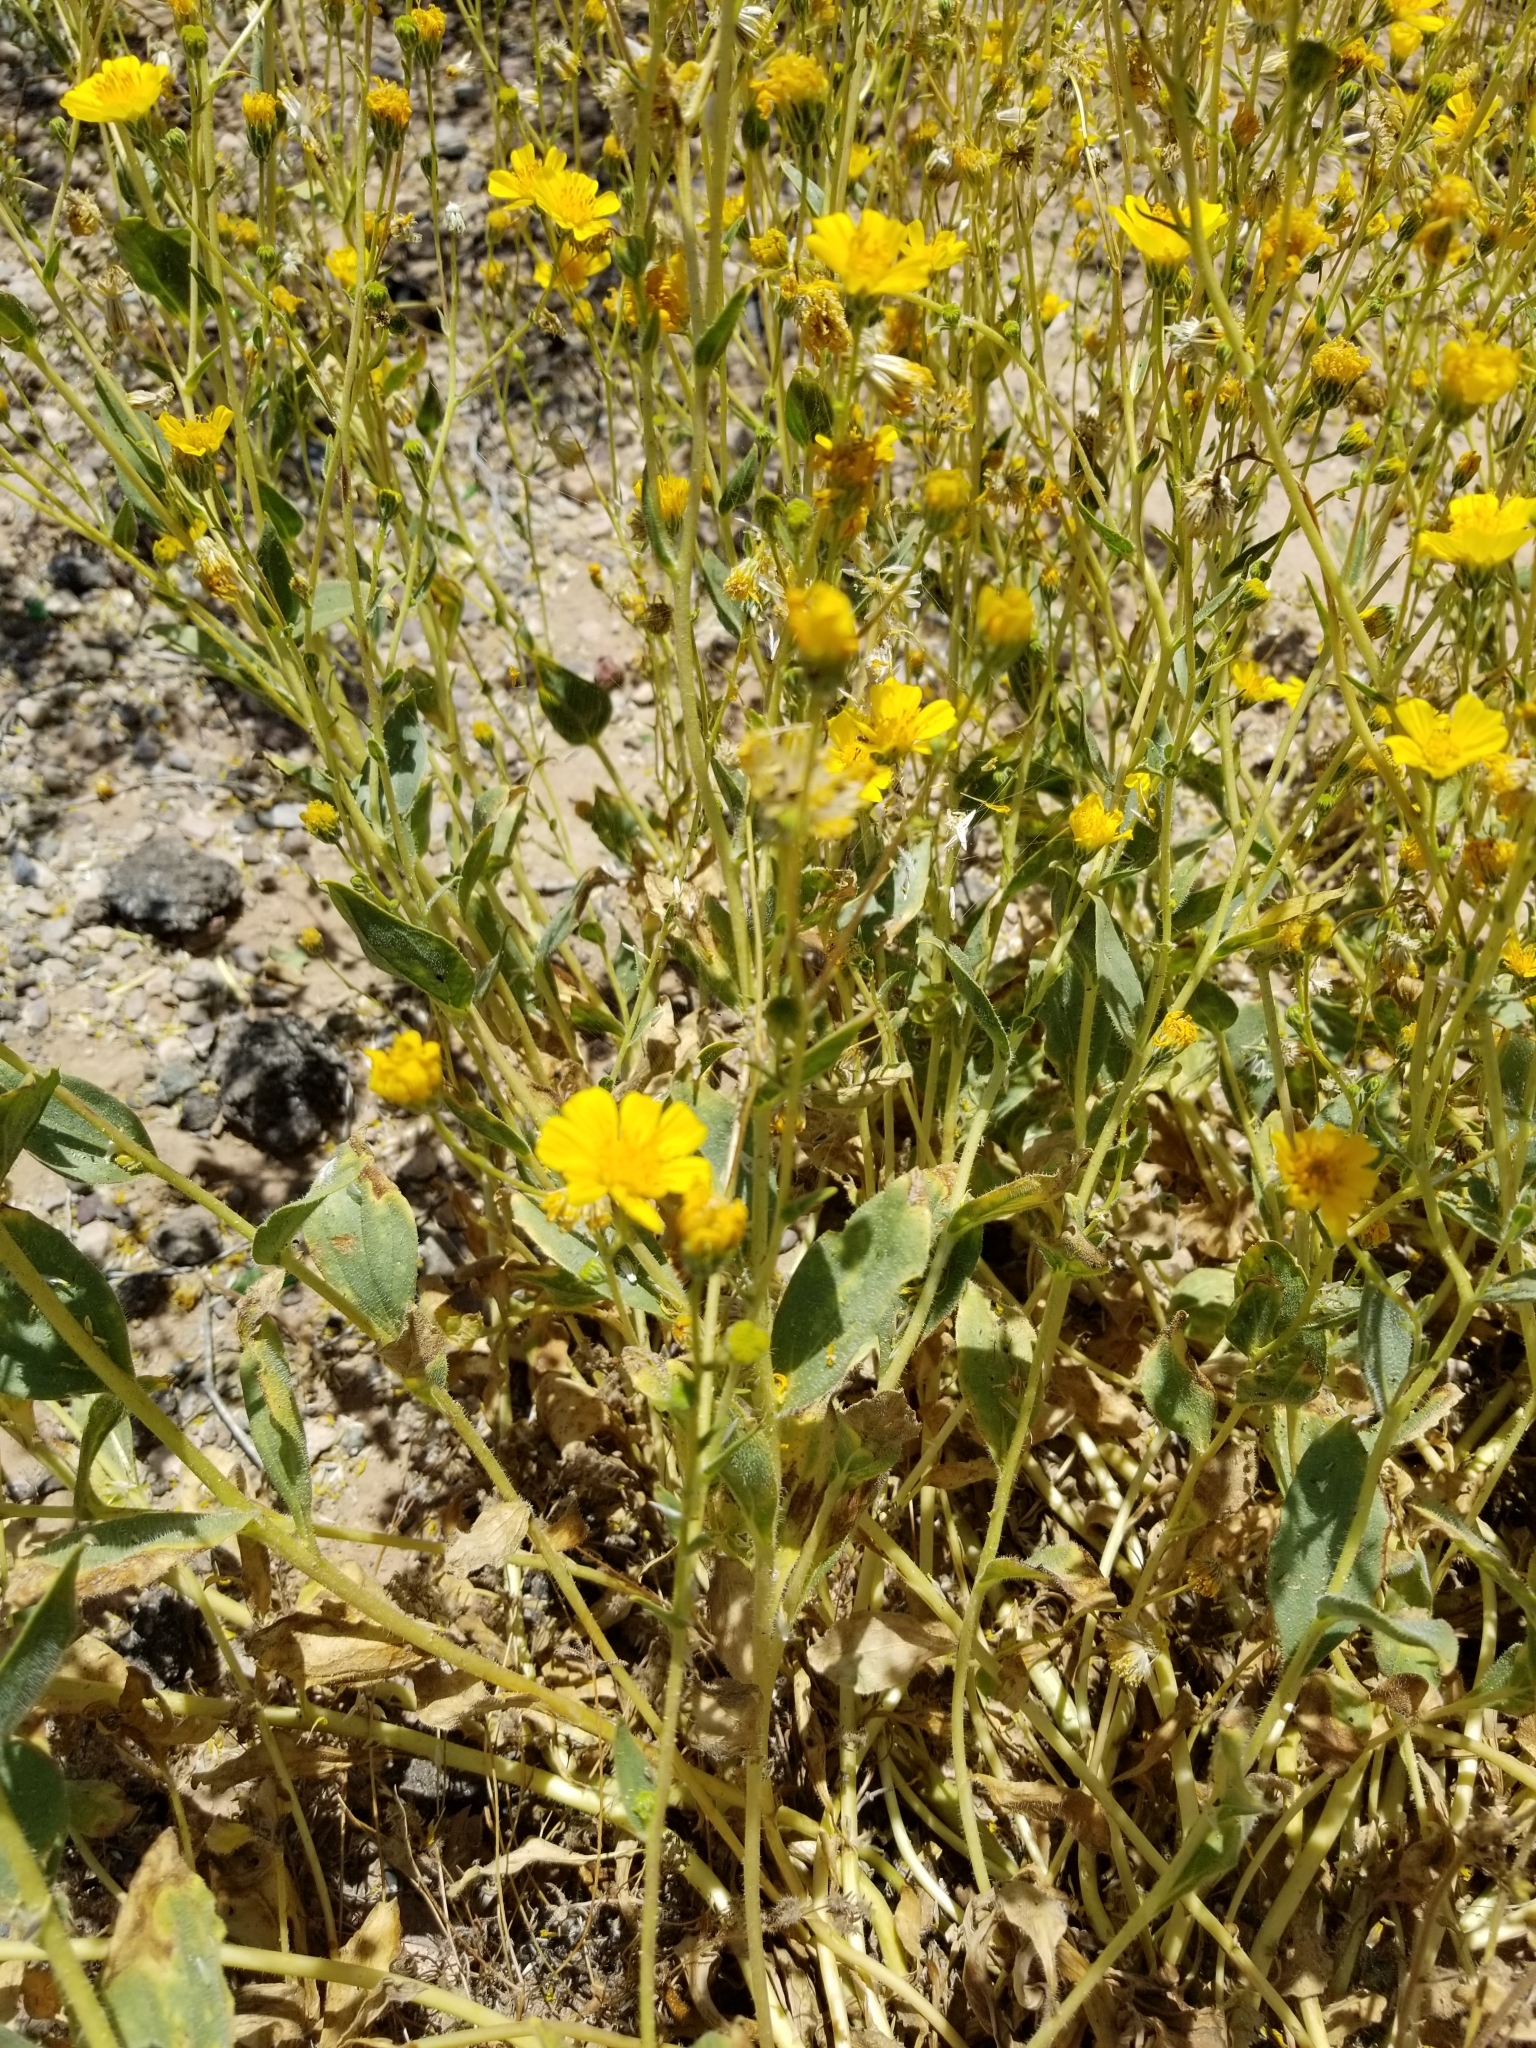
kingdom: Plantae
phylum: Tracheophyta
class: Magnoliopsida
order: Asterales
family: Asteraceae
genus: Geraea
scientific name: Geraea canescens
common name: Desert-gold
